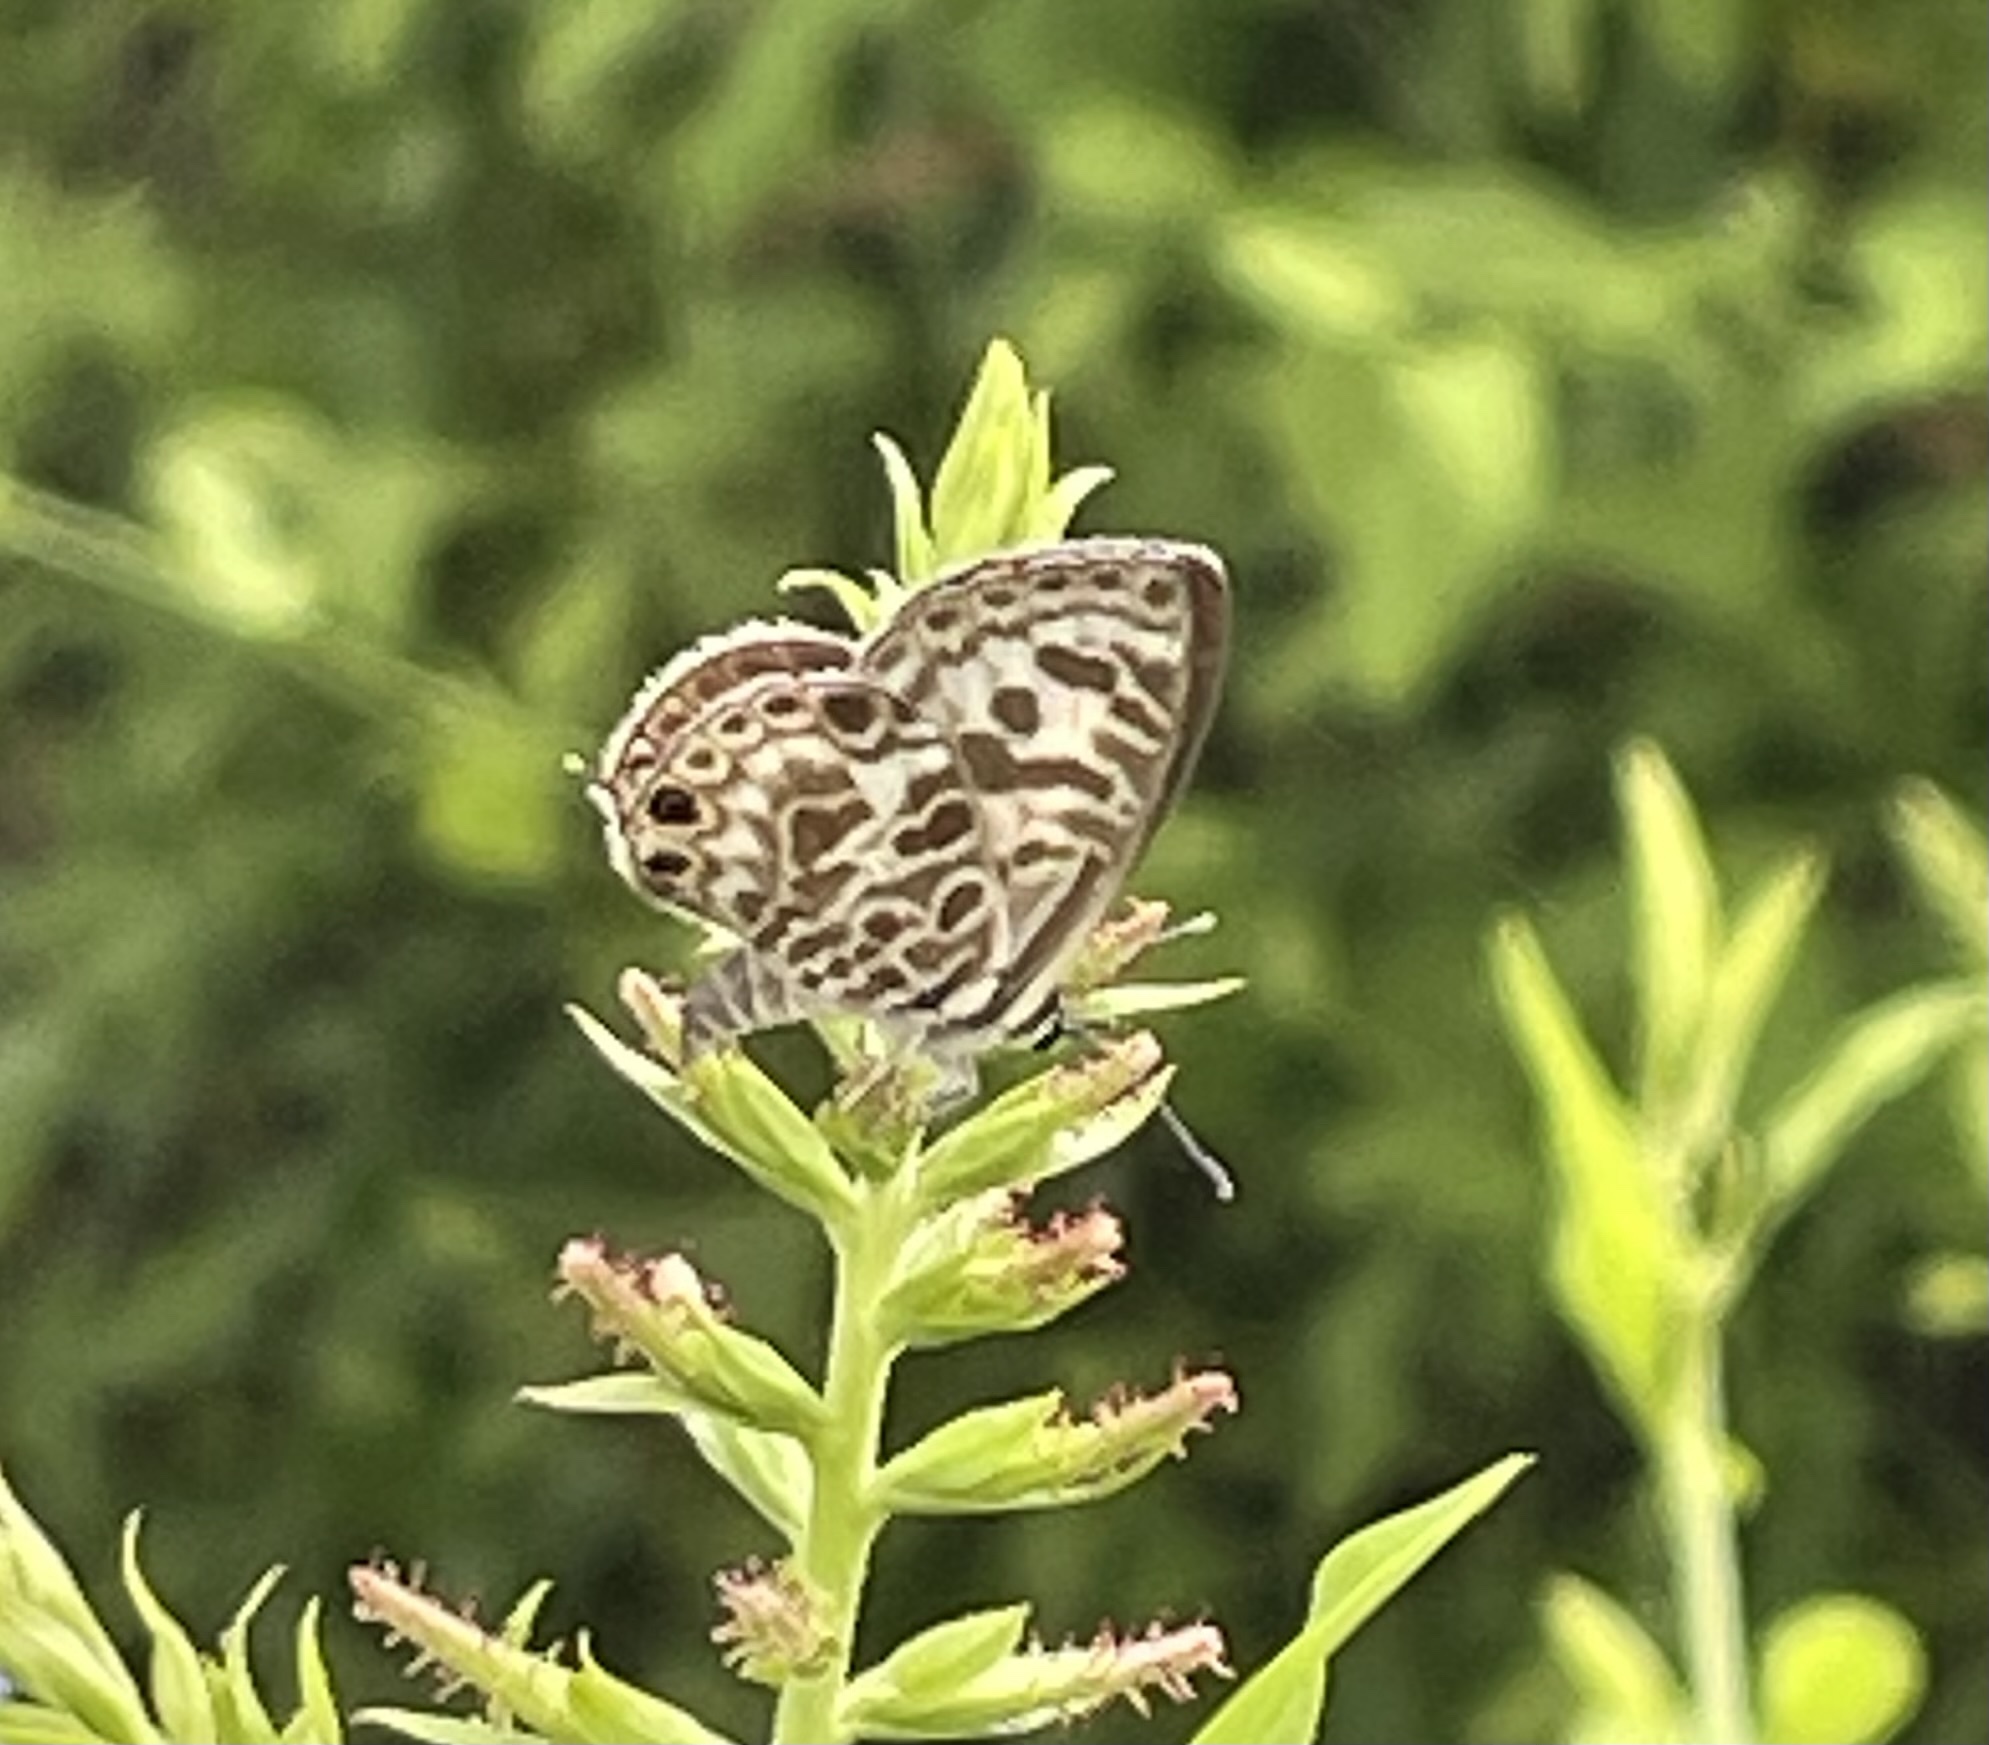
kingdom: Animalia
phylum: Arthropoda
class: Insecta
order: Lepidoptera
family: Lycaenidae
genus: Leptotes
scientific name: Leptotes plinius
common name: Zebra blue
